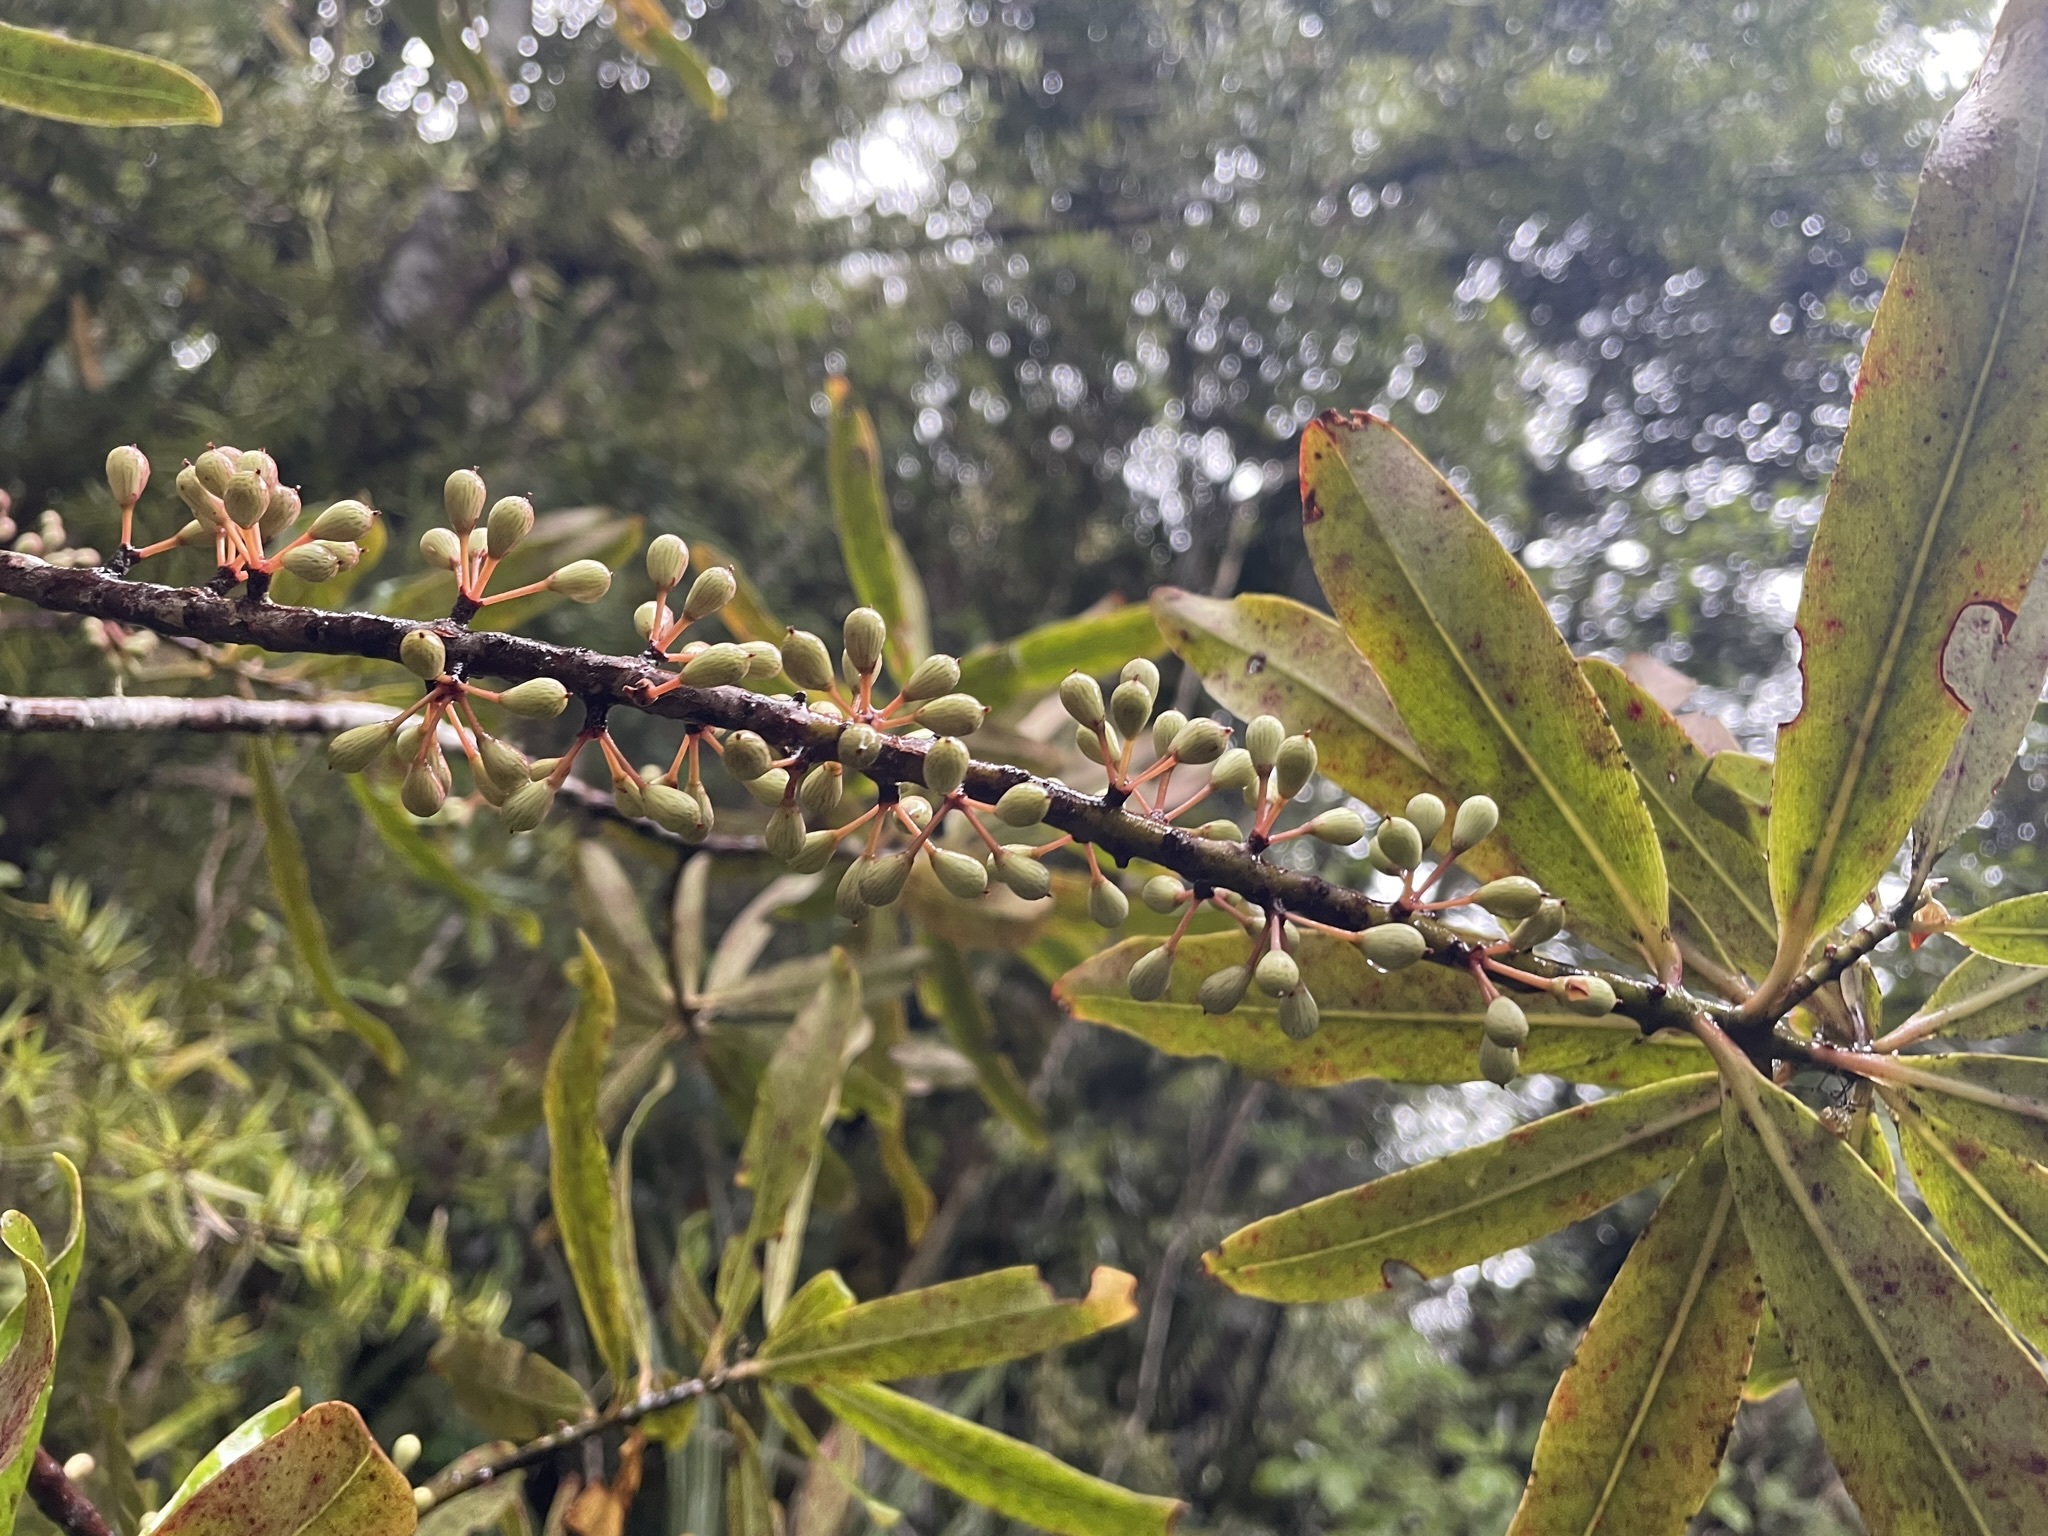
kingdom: Plantae
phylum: Tracheophyta
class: Magnoliopsida
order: Ericales
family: Primulaceae
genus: Myrsine
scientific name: Myrsine salicina
